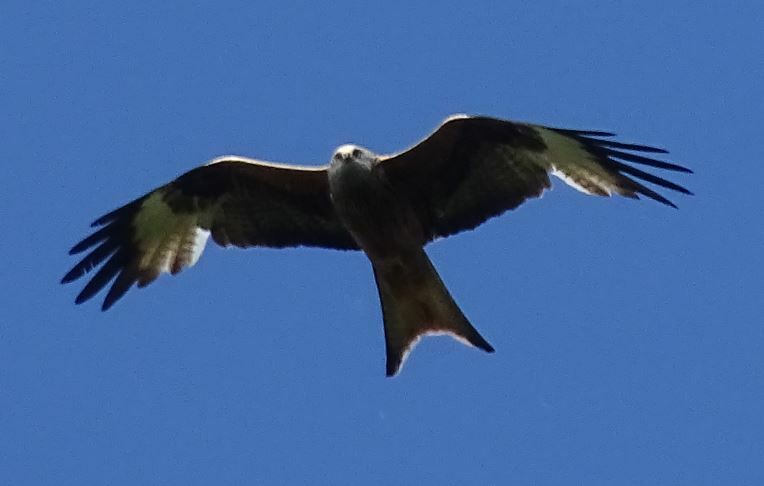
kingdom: Animalia
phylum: Chordata
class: Aves
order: Accipitriformes
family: Accipitridae
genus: Milvus
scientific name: Milvus milvus
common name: Red kite
